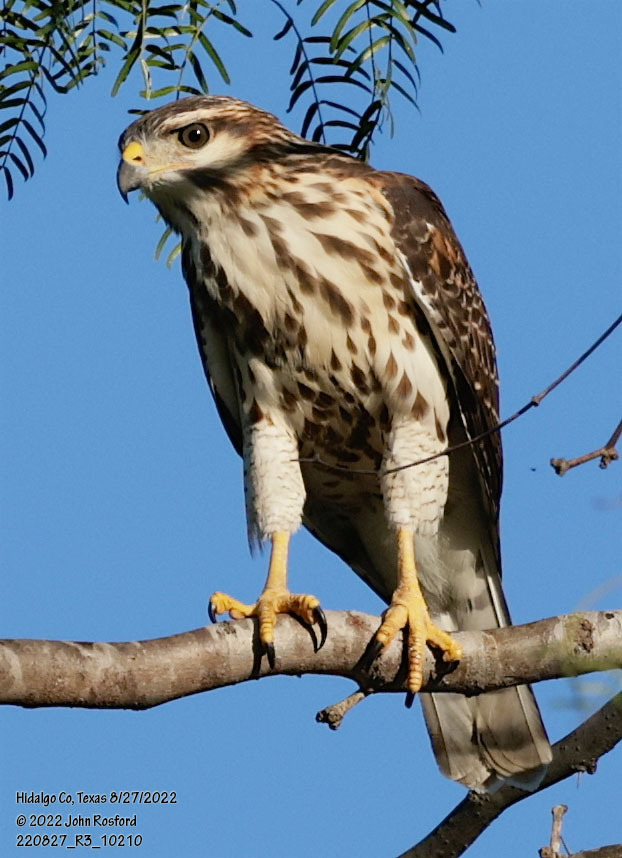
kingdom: Animalia
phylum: Chordata
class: Aves
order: Accipitriformes
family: Accipitridae
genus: Buteo
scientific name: Buteo nitidus
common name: Grey-lined hawk
